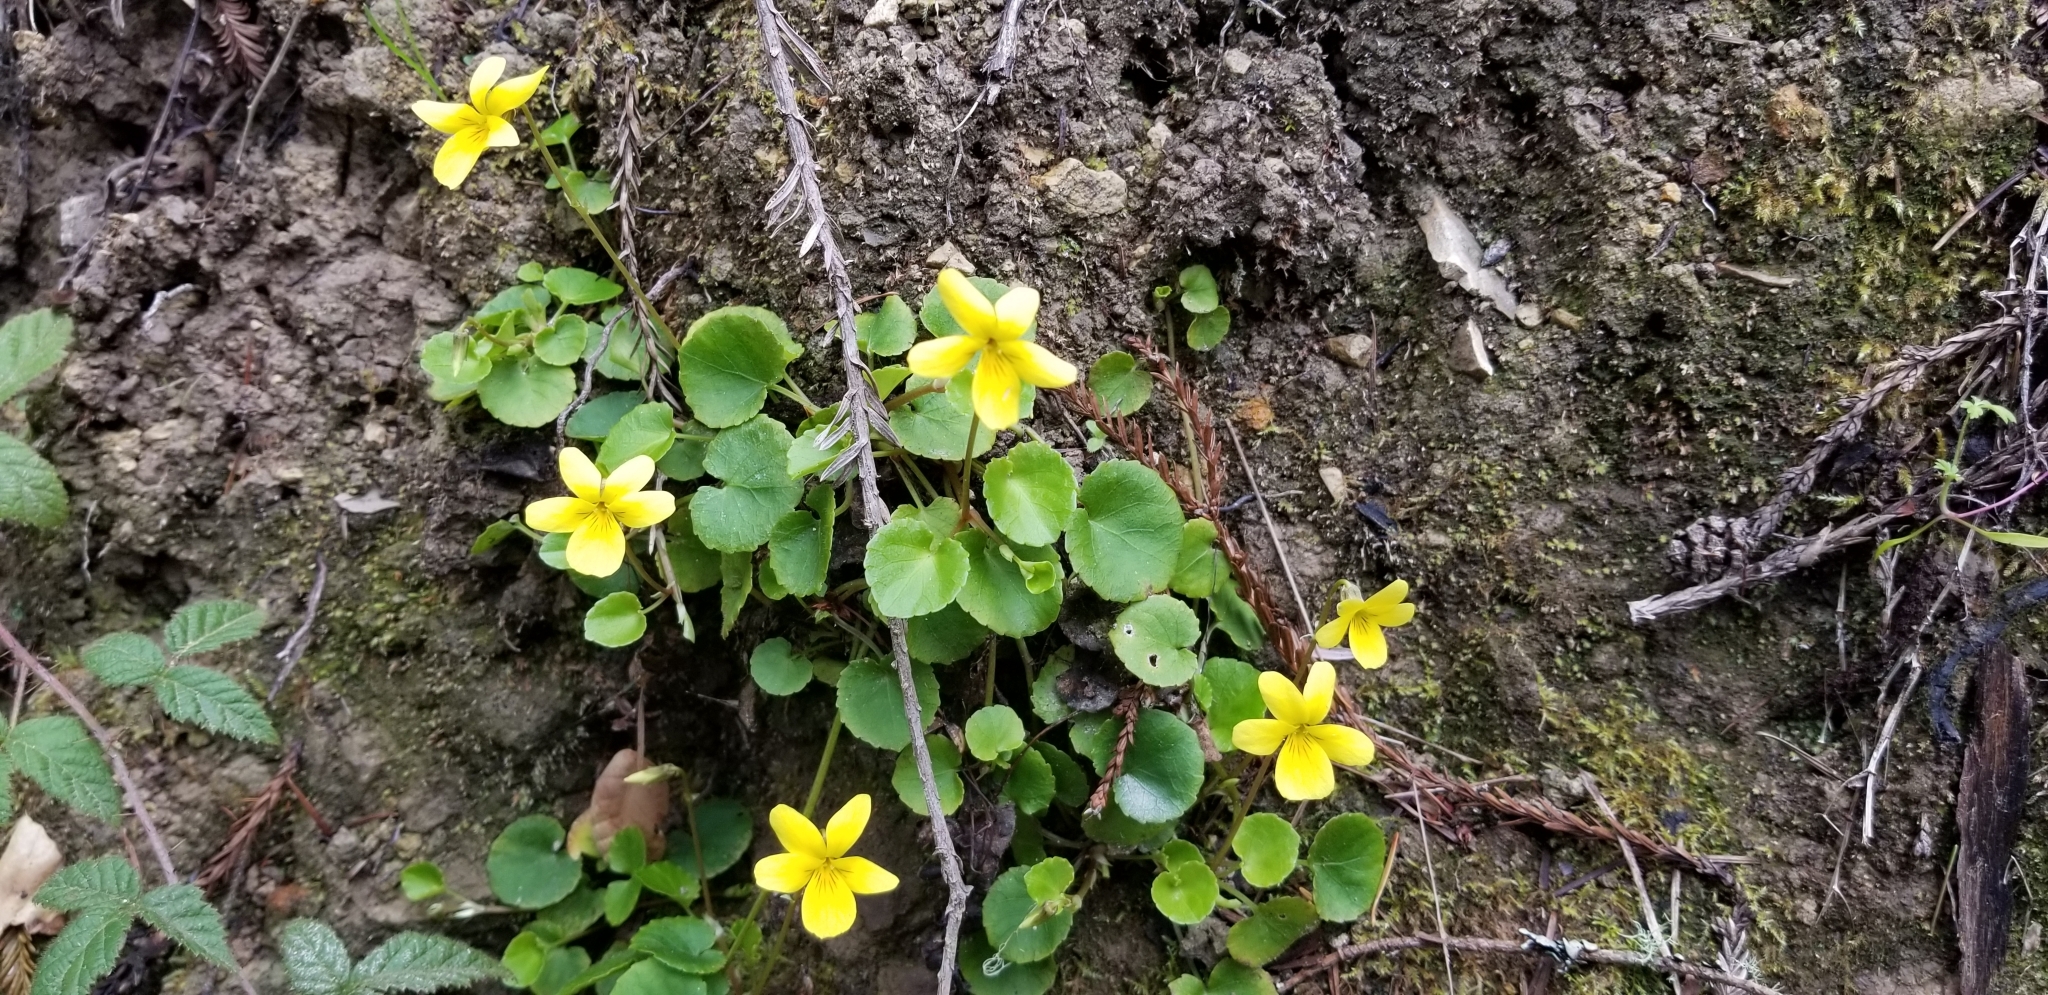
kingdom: Plantae
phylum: Tracheophyta
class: Magnoliopsida
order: Malpighiales
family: Violaceae
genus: Viola
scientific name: Viola sempervirens
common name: Evergreen violet
